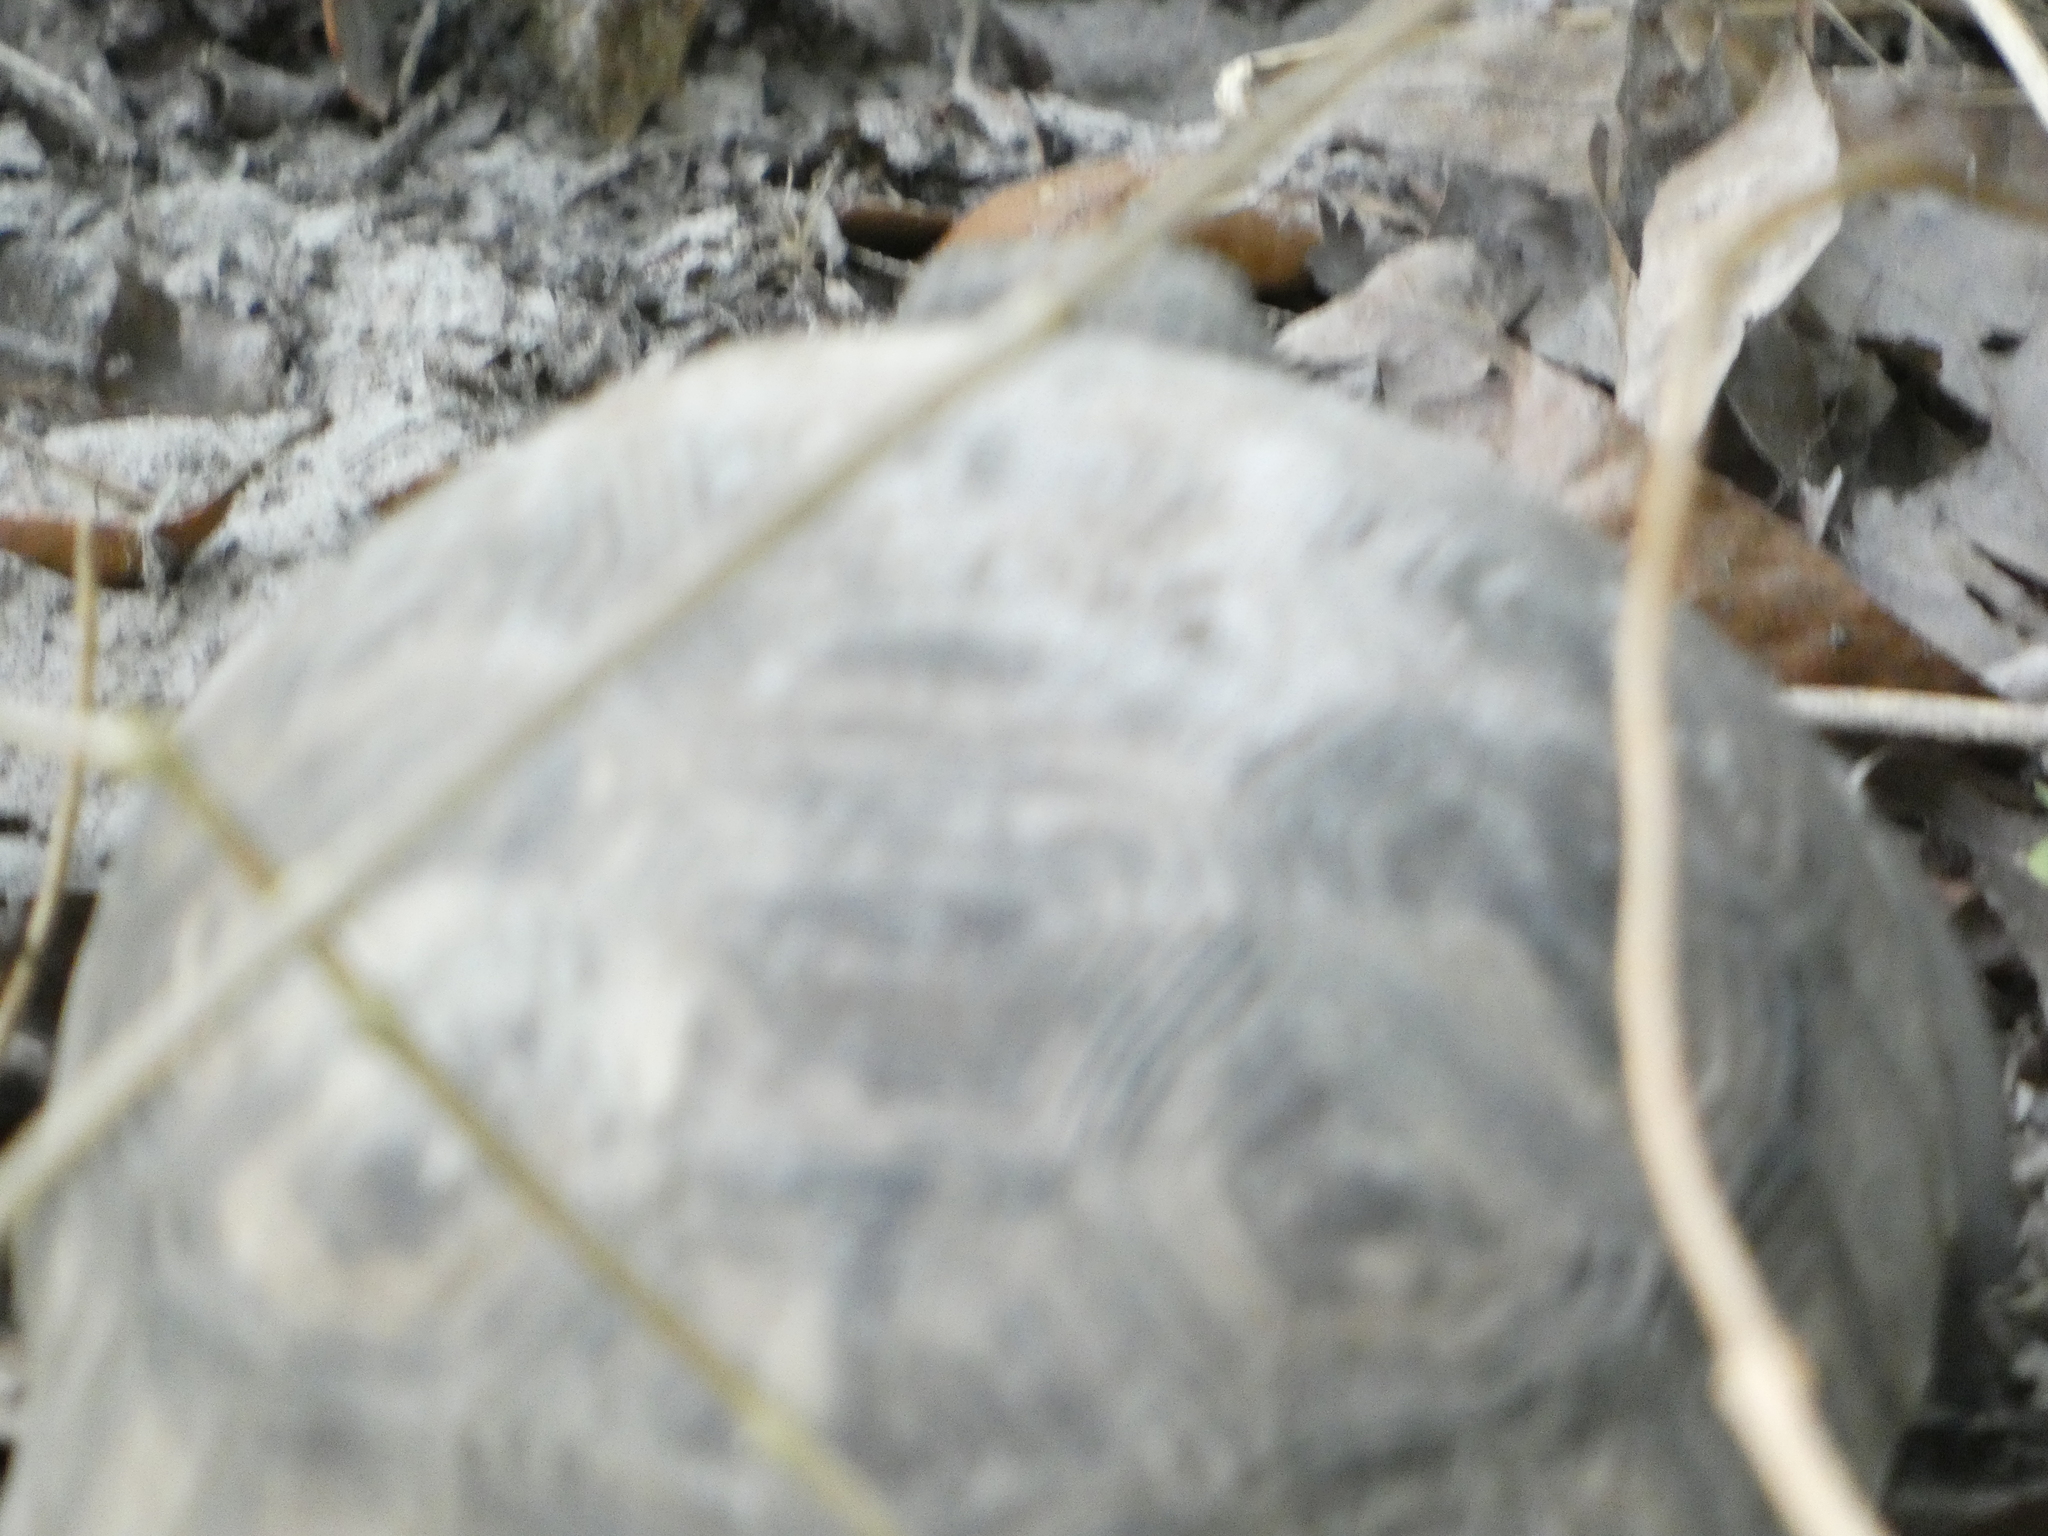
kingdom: Animalia
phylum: Chordata
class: Testudines
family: Testudinidae
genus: Gopherus
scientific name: Gopherus polyphemus
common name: Florida gopher tortoise
